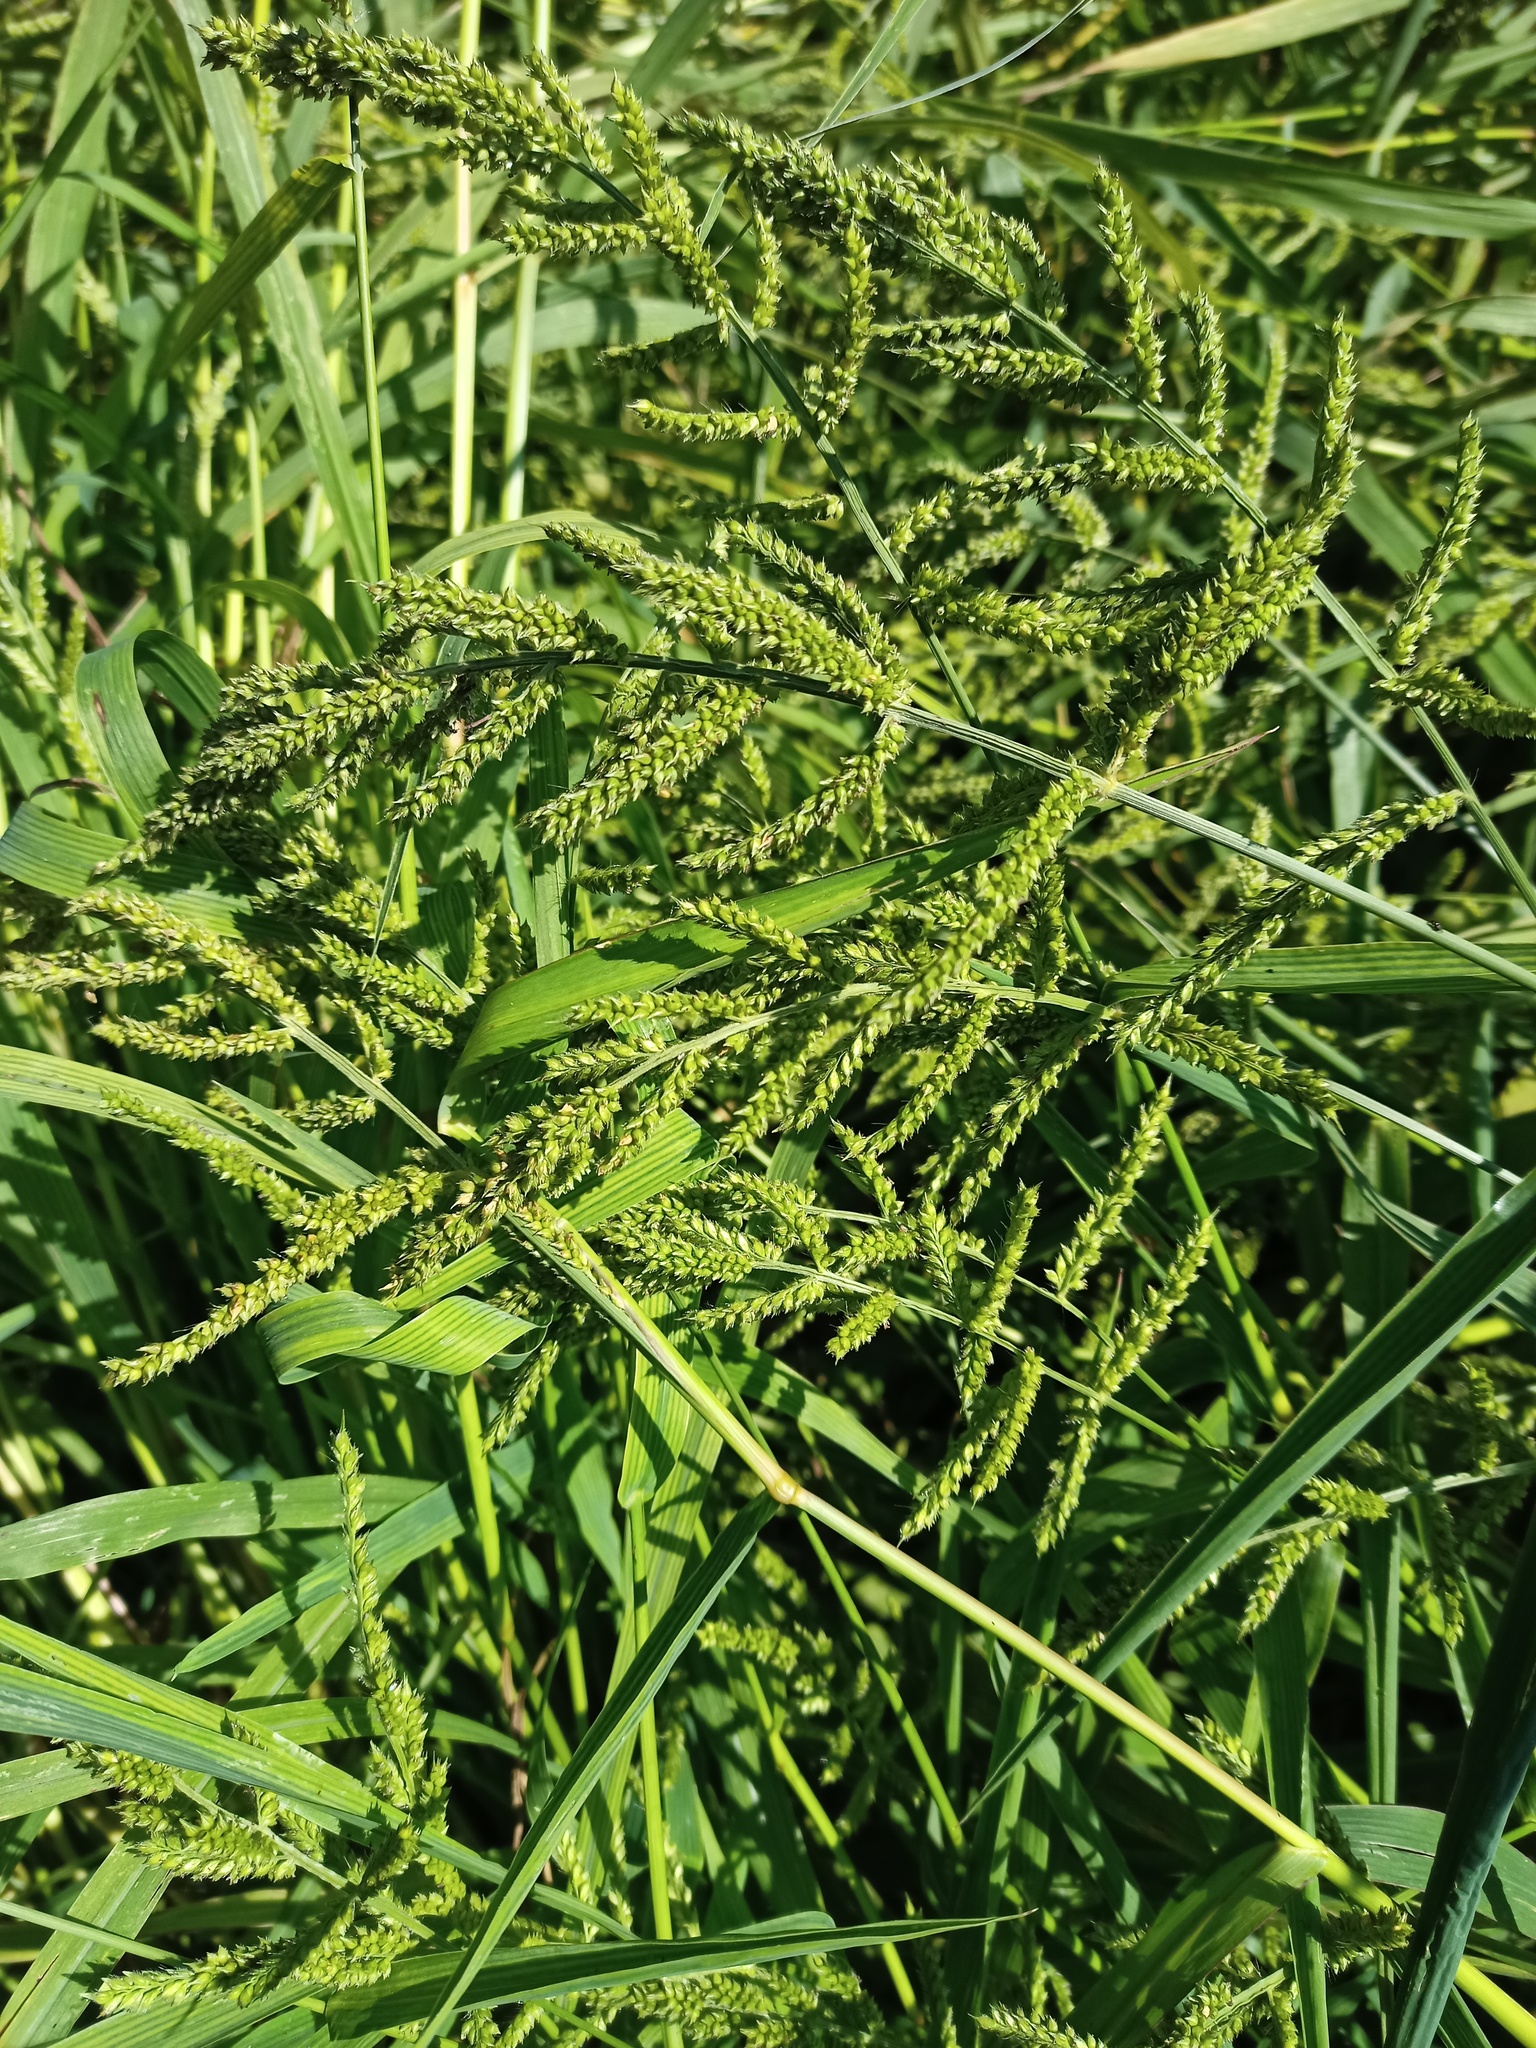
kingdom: Plantae
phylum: Tracheophyta
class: Liliopsida
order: Poales
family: Poaceae
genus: Echinochloa
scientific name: Echinochloa crus-galli
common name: Cockspur
